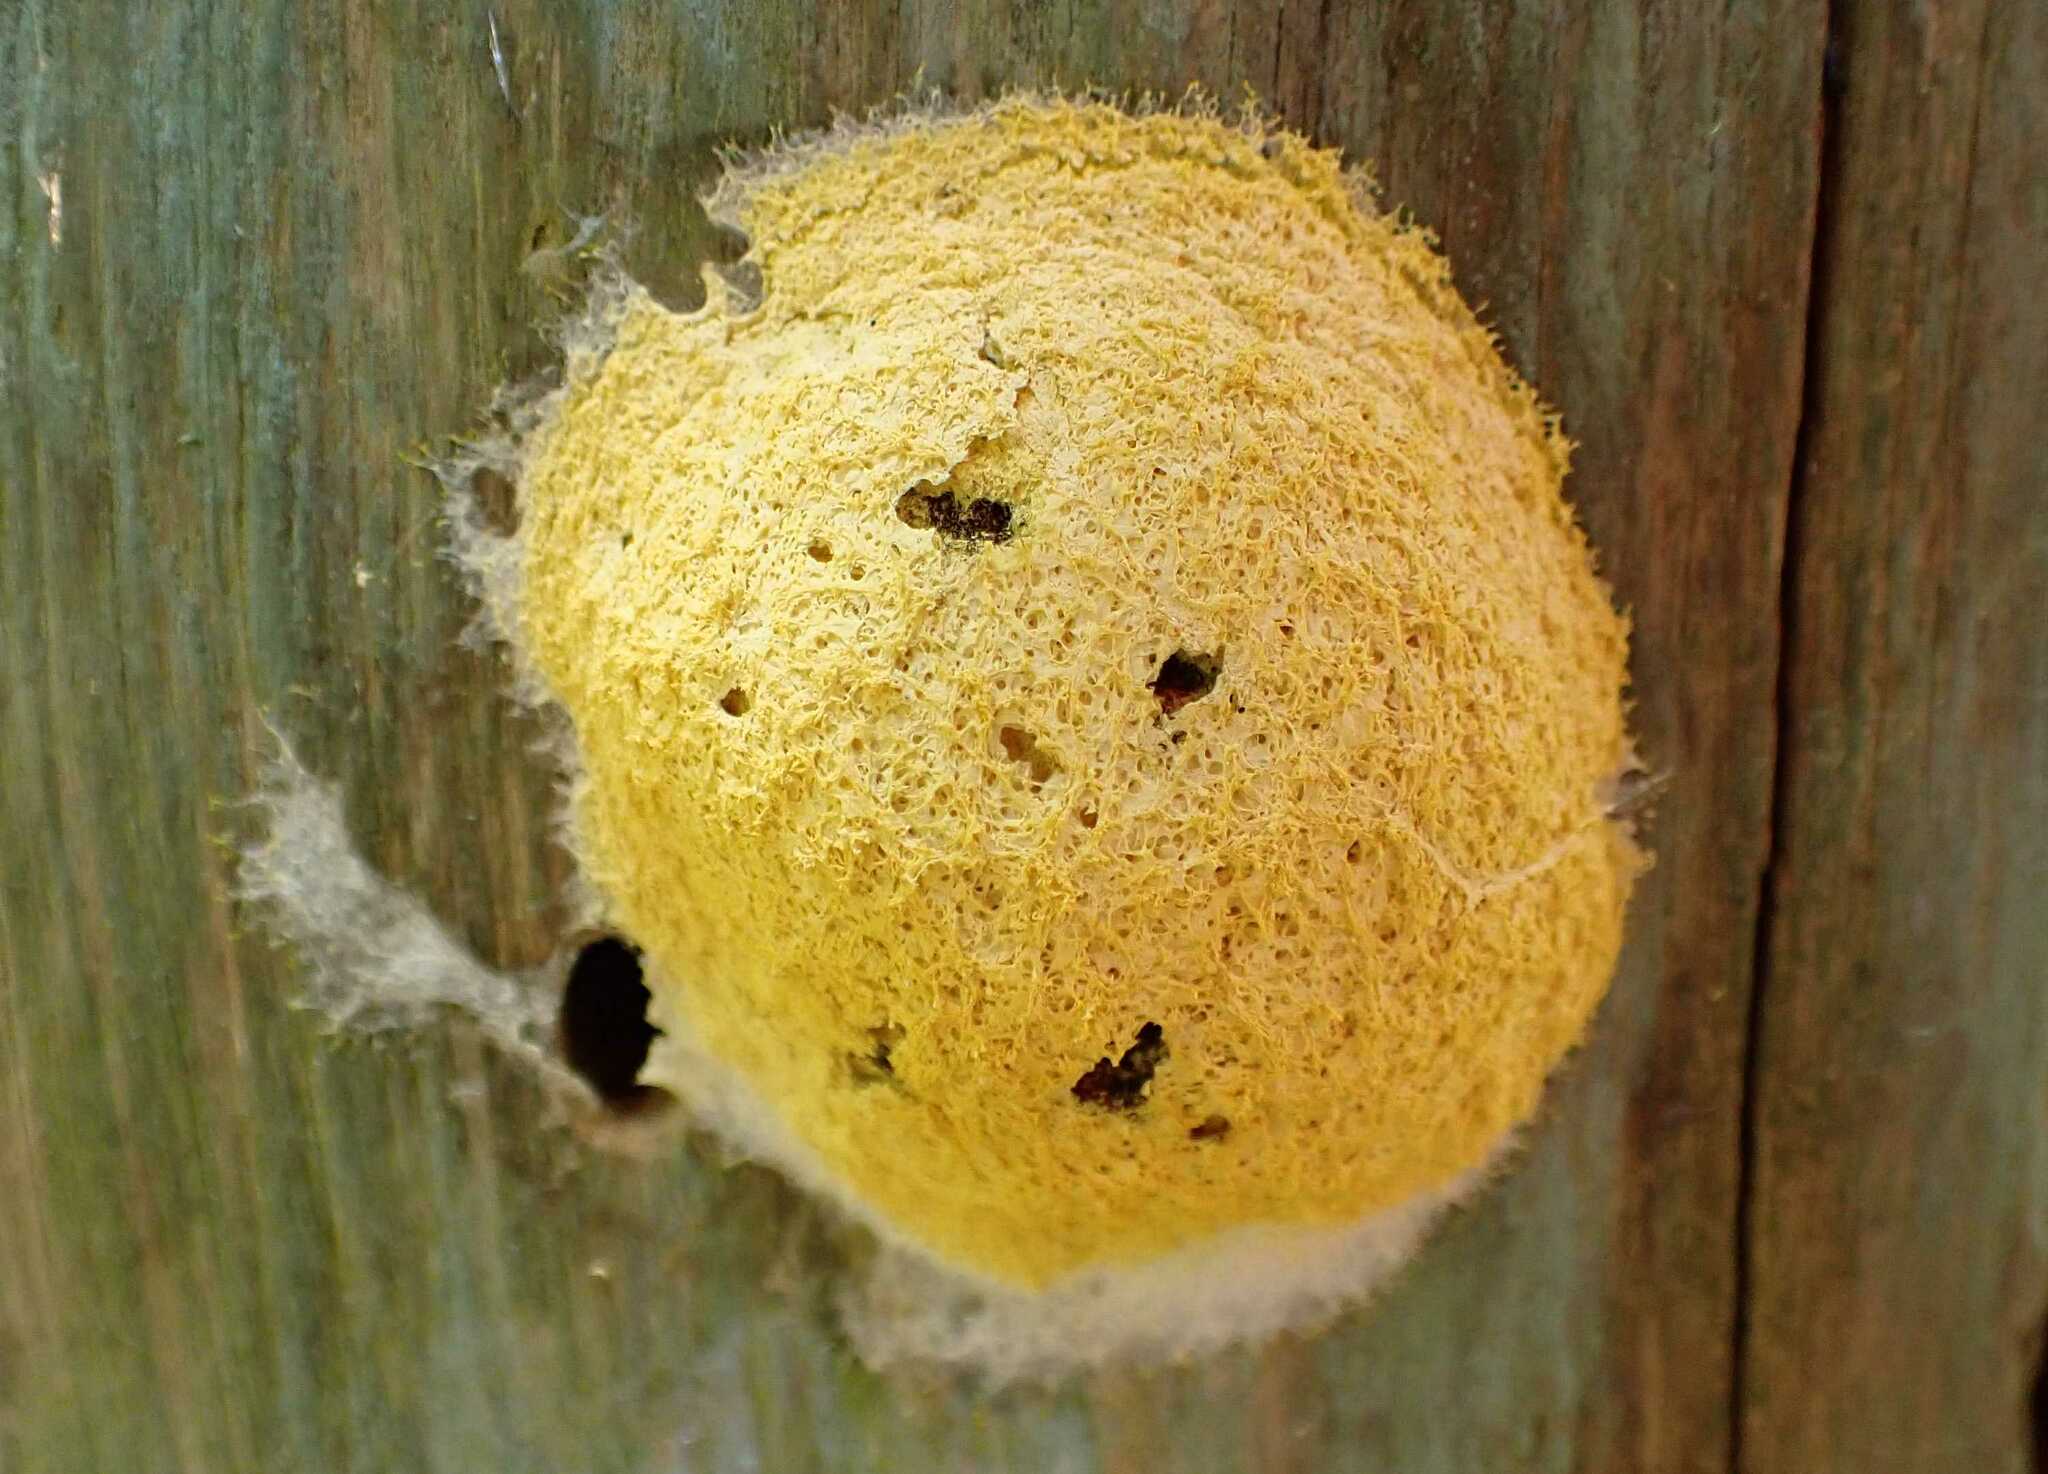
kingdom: Protozoa
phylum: Mycetozoa
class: Myxomycetes
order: Physarales
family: Physaraceae
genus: Fuligo
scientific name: Fuligo septica
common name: Dog vomit slime mold
